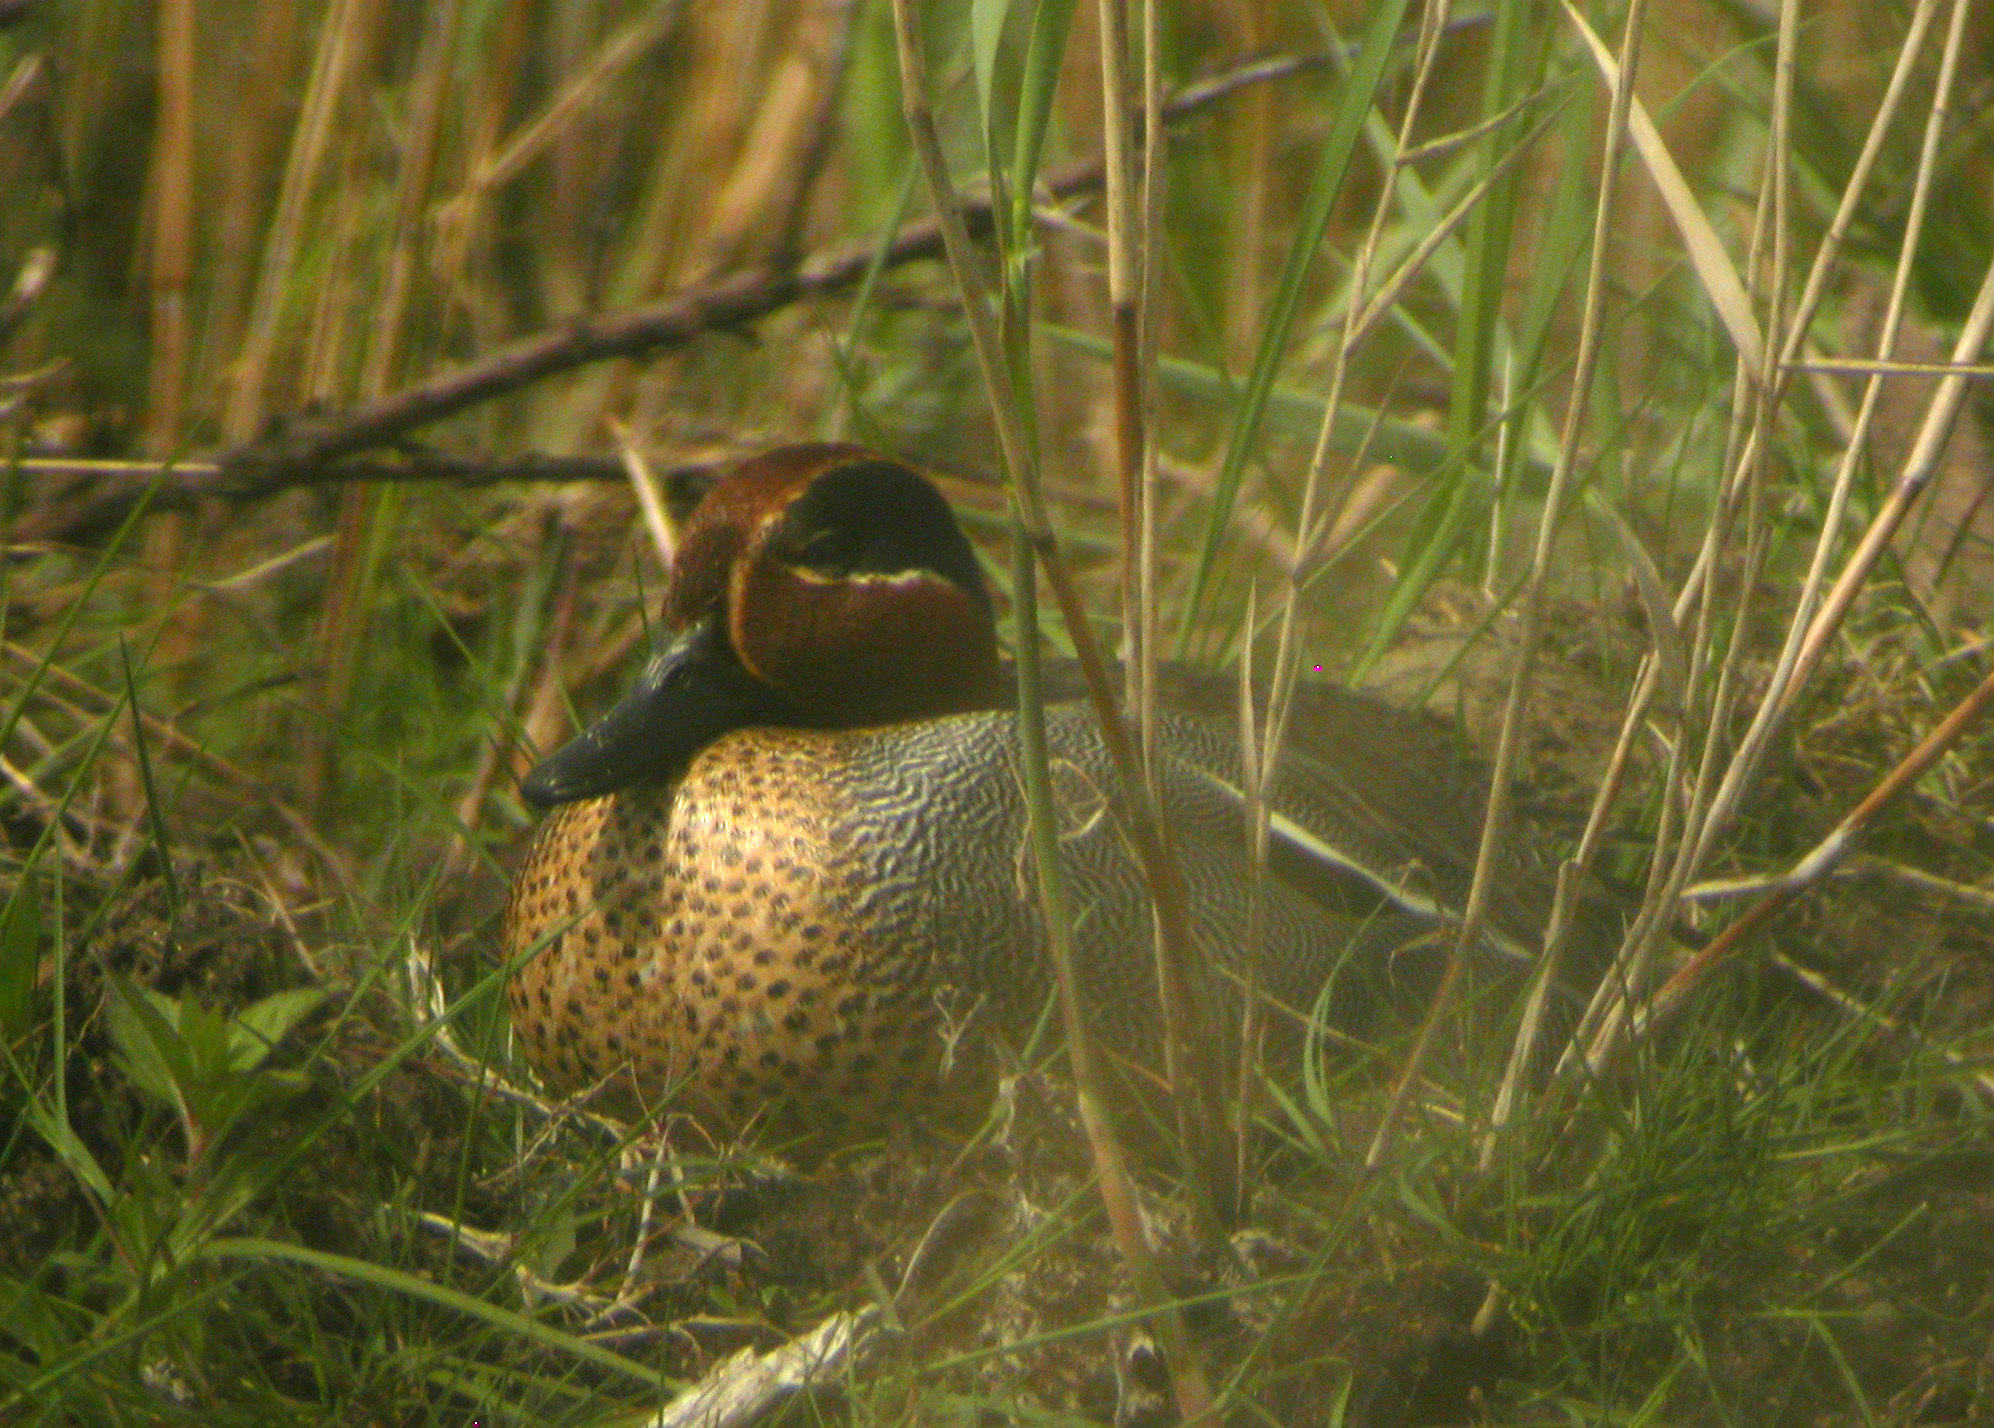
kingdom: Animalia
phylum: Chordata
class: Aves
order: Anseriformes
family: Anatidae
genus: Anas
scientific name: Anas crecca
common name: Eurasian teal
